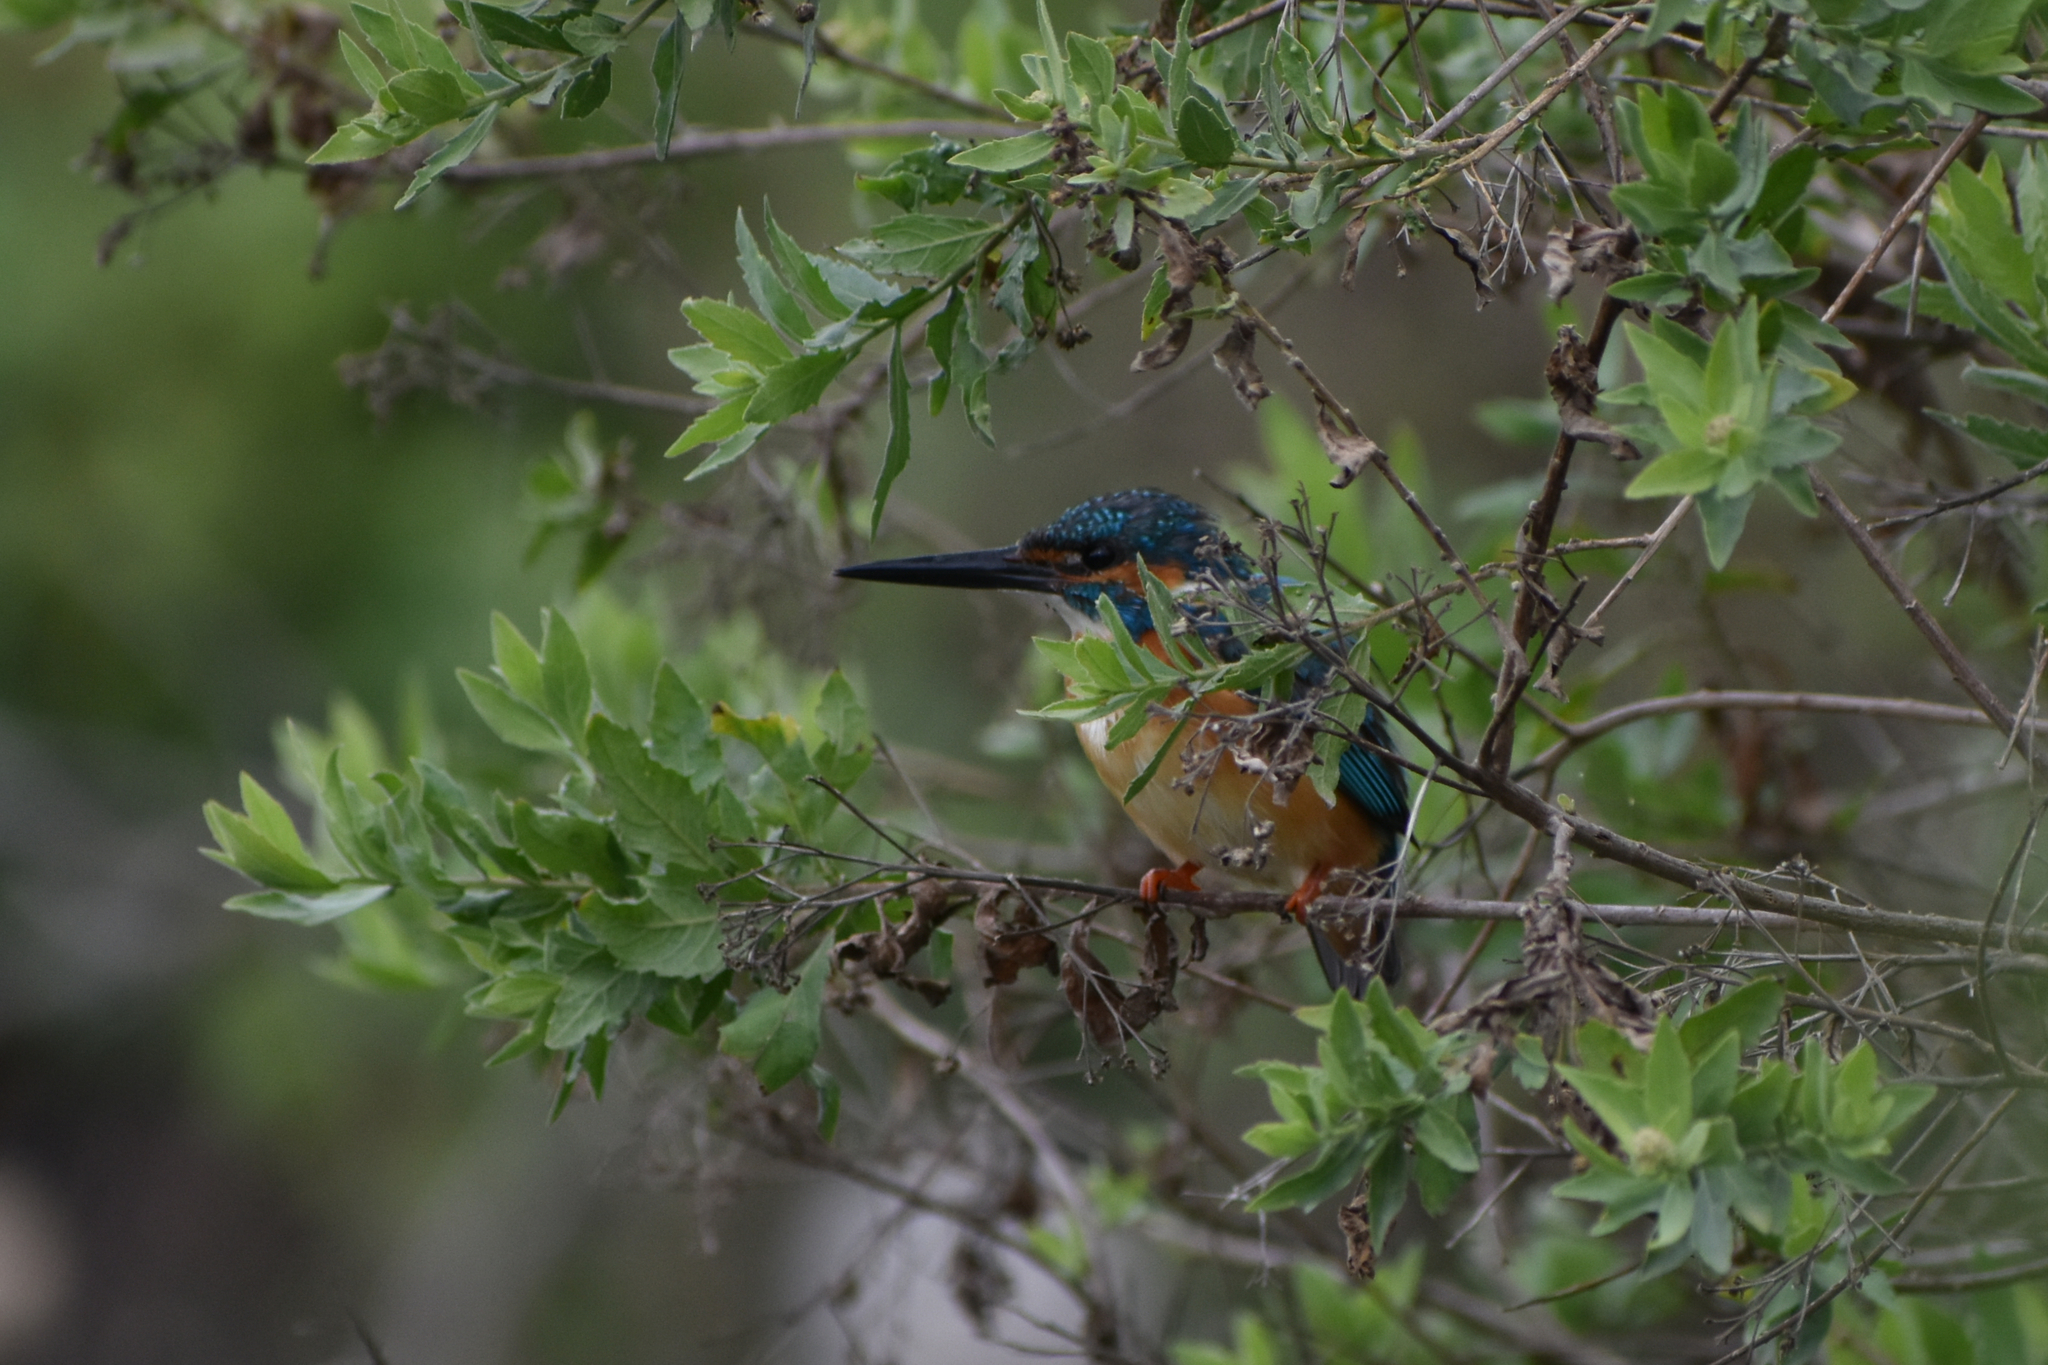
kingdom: Animalia
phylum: Chordata
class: Aves
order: Coraciiformes
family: Alcedinidae
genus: Alcedo
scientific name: Alcedo atthis
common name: Common kingfisher
